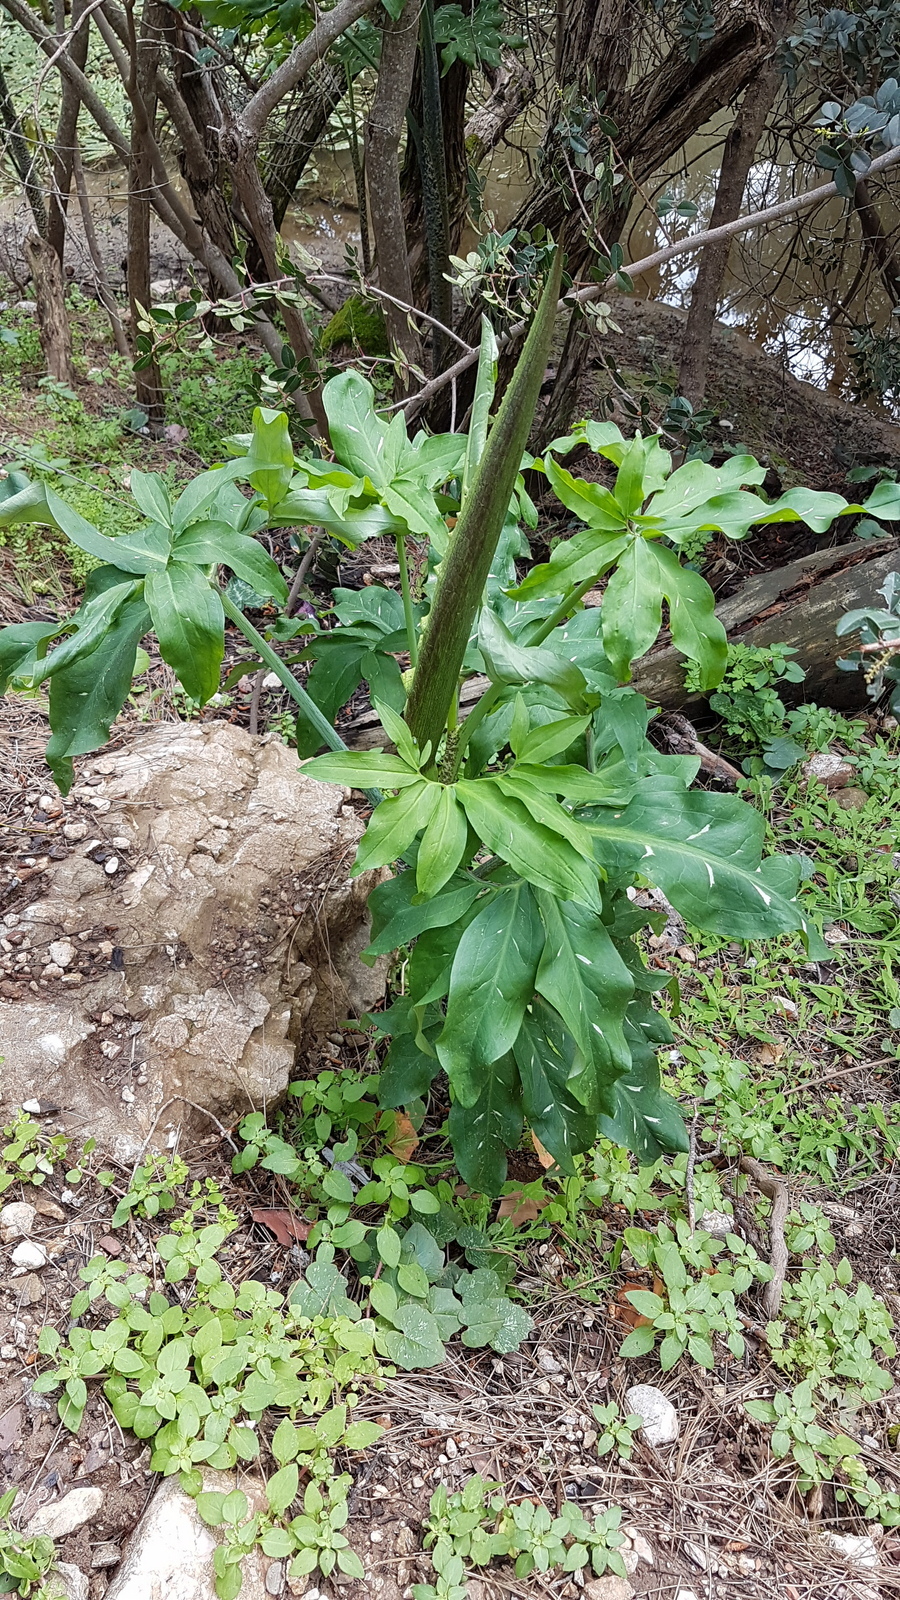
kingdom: Plantae
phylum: Tracheophyta
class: Liliopsida
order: Alismatales
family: Araceae
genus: Dracunculus
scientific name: Dracunculus vulgaris
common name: Dragon arum
